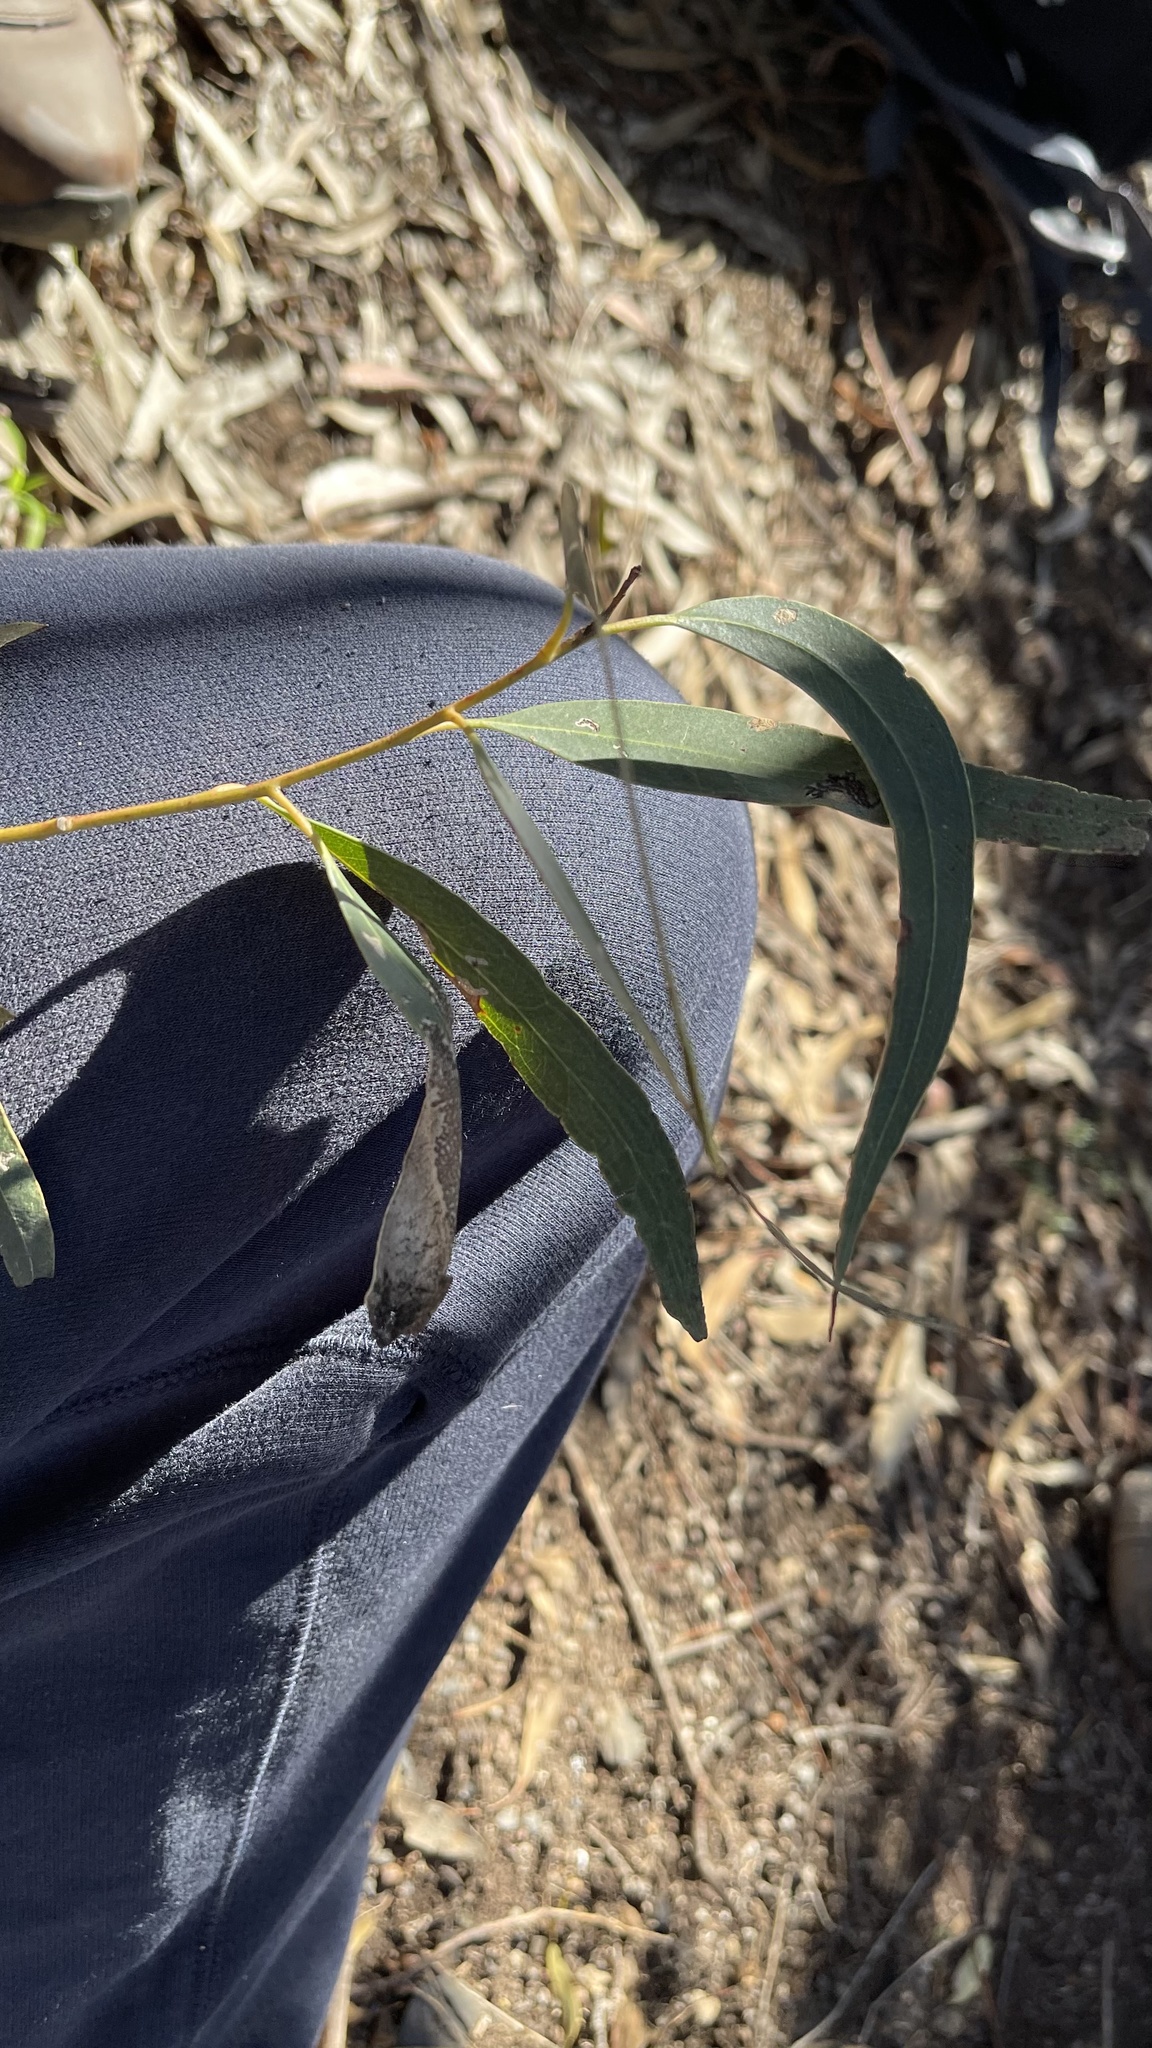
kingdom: Plantae
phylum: Tracheophyta
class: Magnoliopsida
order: Myrtales
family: Myrtaceae
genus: Eucalyptus
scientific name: Eucalyptus goniocalyx
